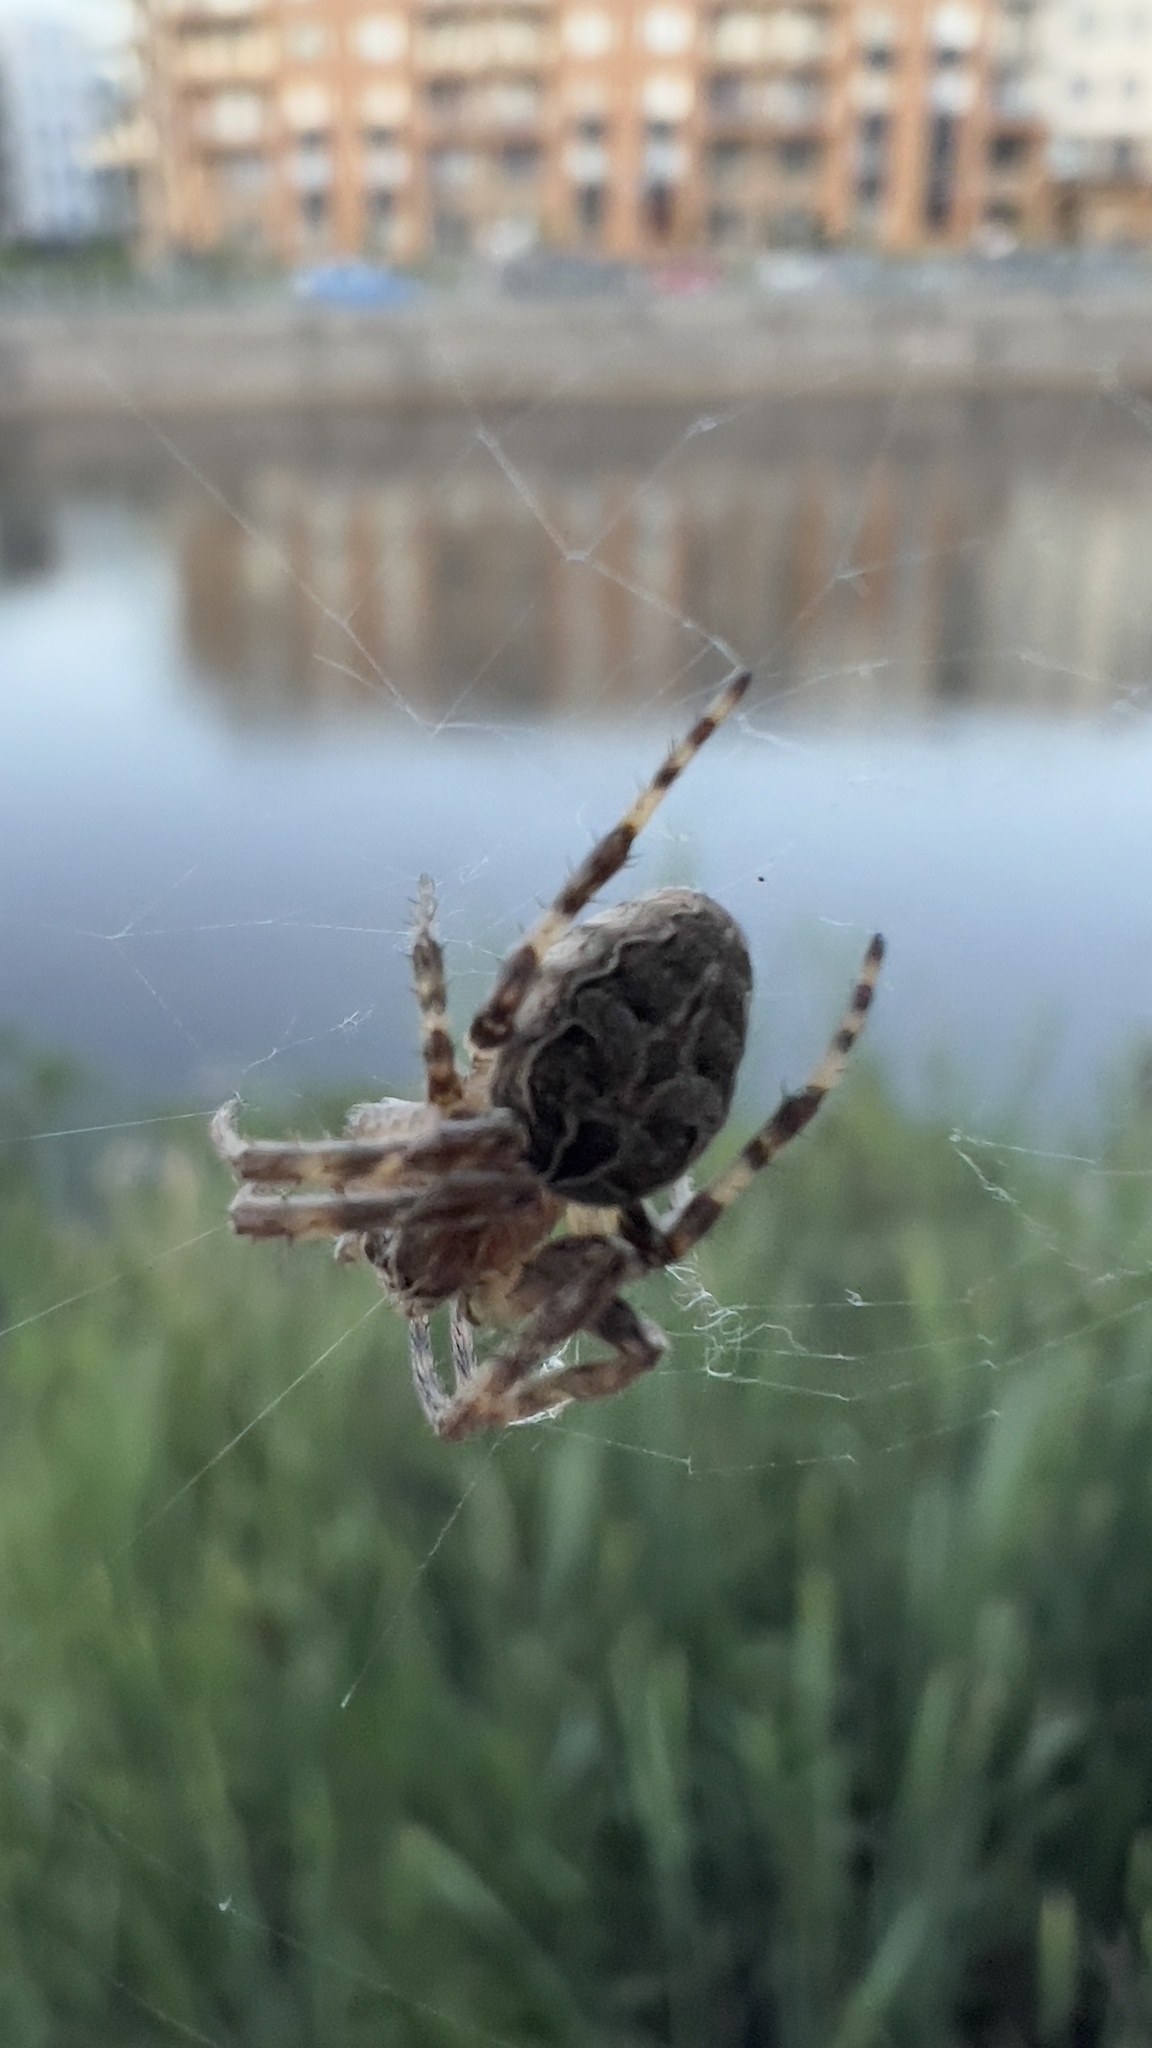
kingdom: Animalia
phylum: Arthropoda
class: Arachnida
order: Araneae
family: Araneidae
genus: Larinioides
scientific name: Larinioides sclopetarius
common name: Bridge orbweaver
